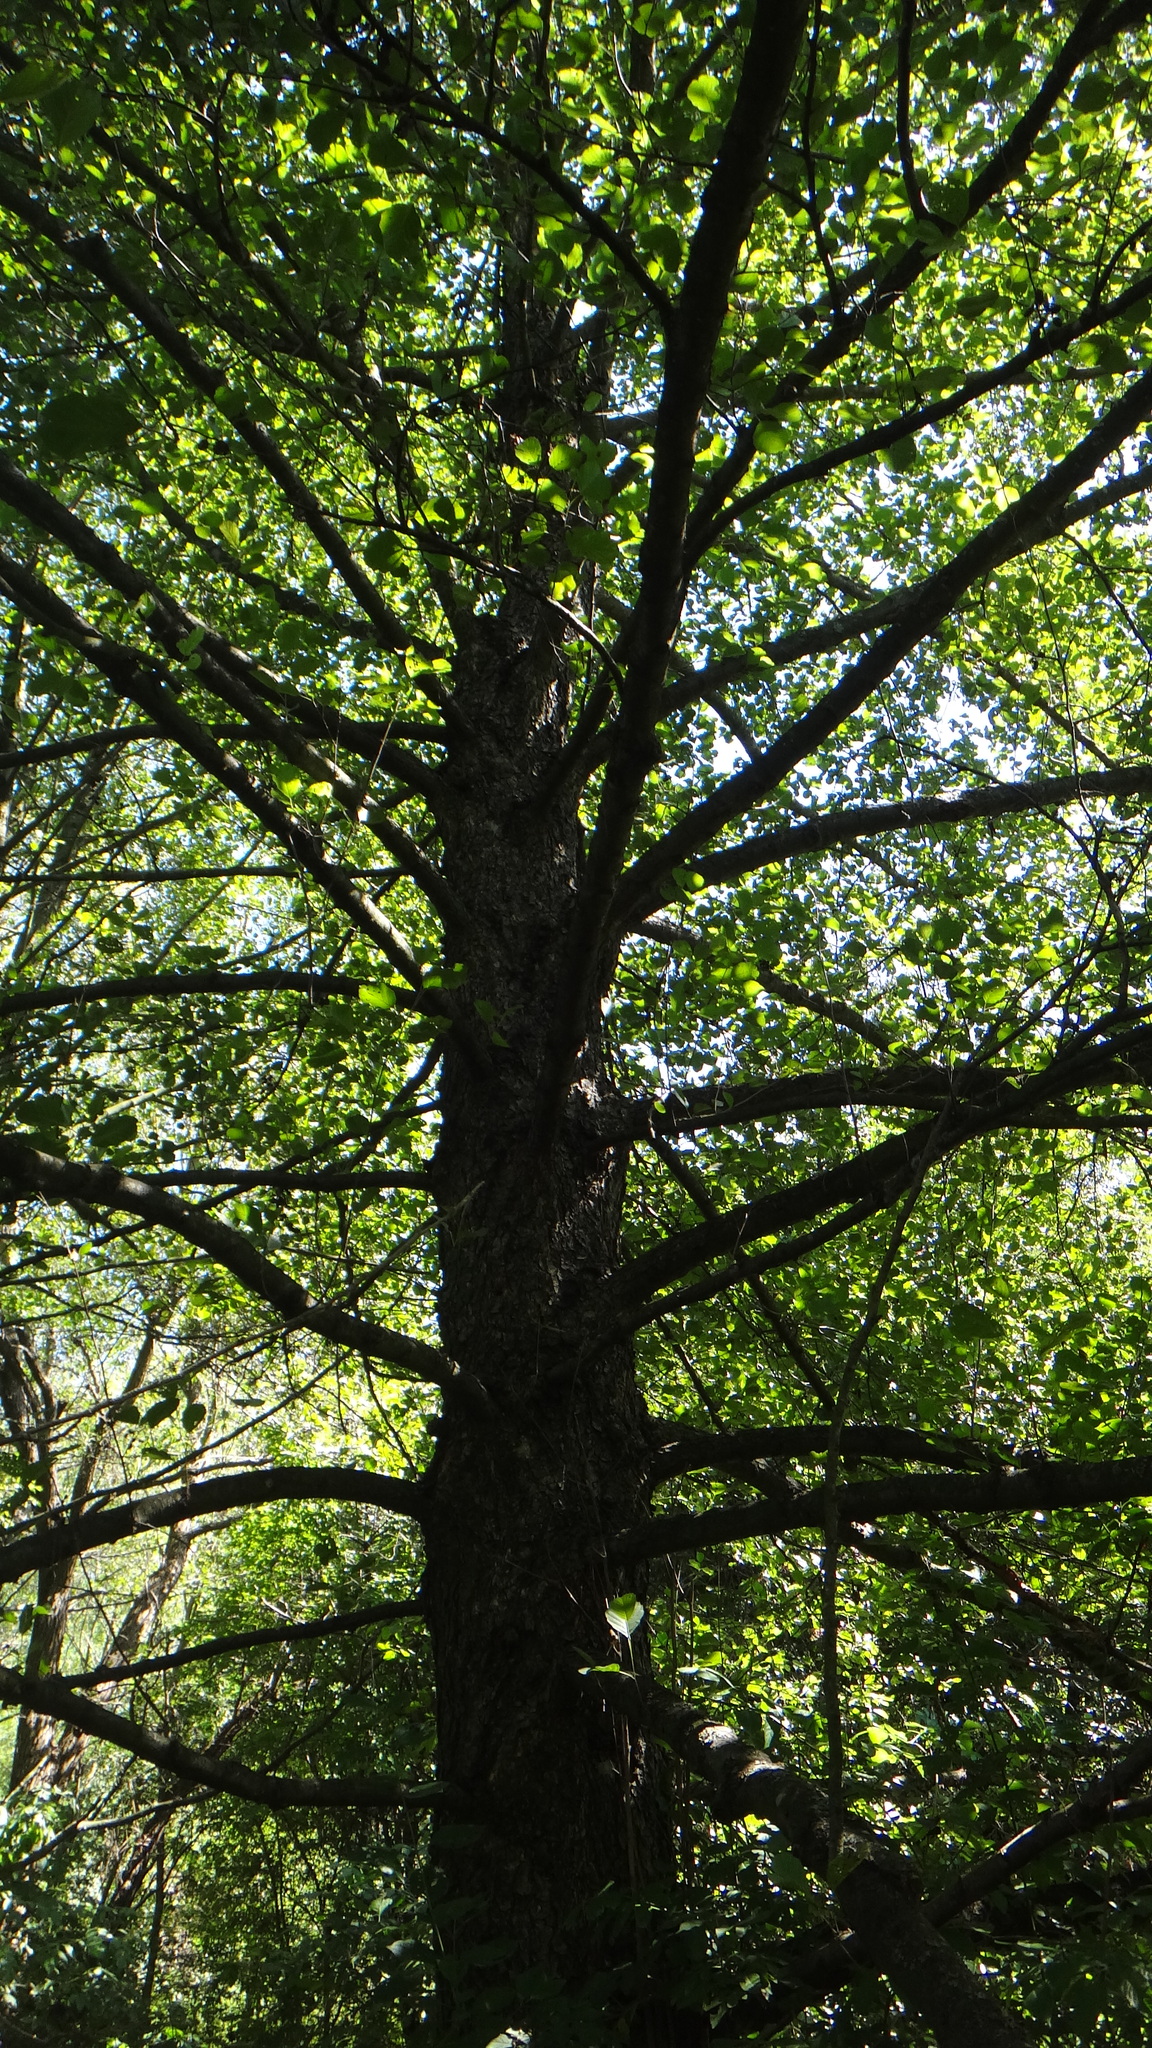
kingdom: Plantae
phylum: Tracheophyta
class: Magnoliopsida
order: Fagales
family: Betulaceae
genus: Alnus
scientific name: Alnus glutinosa
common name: Black alder
